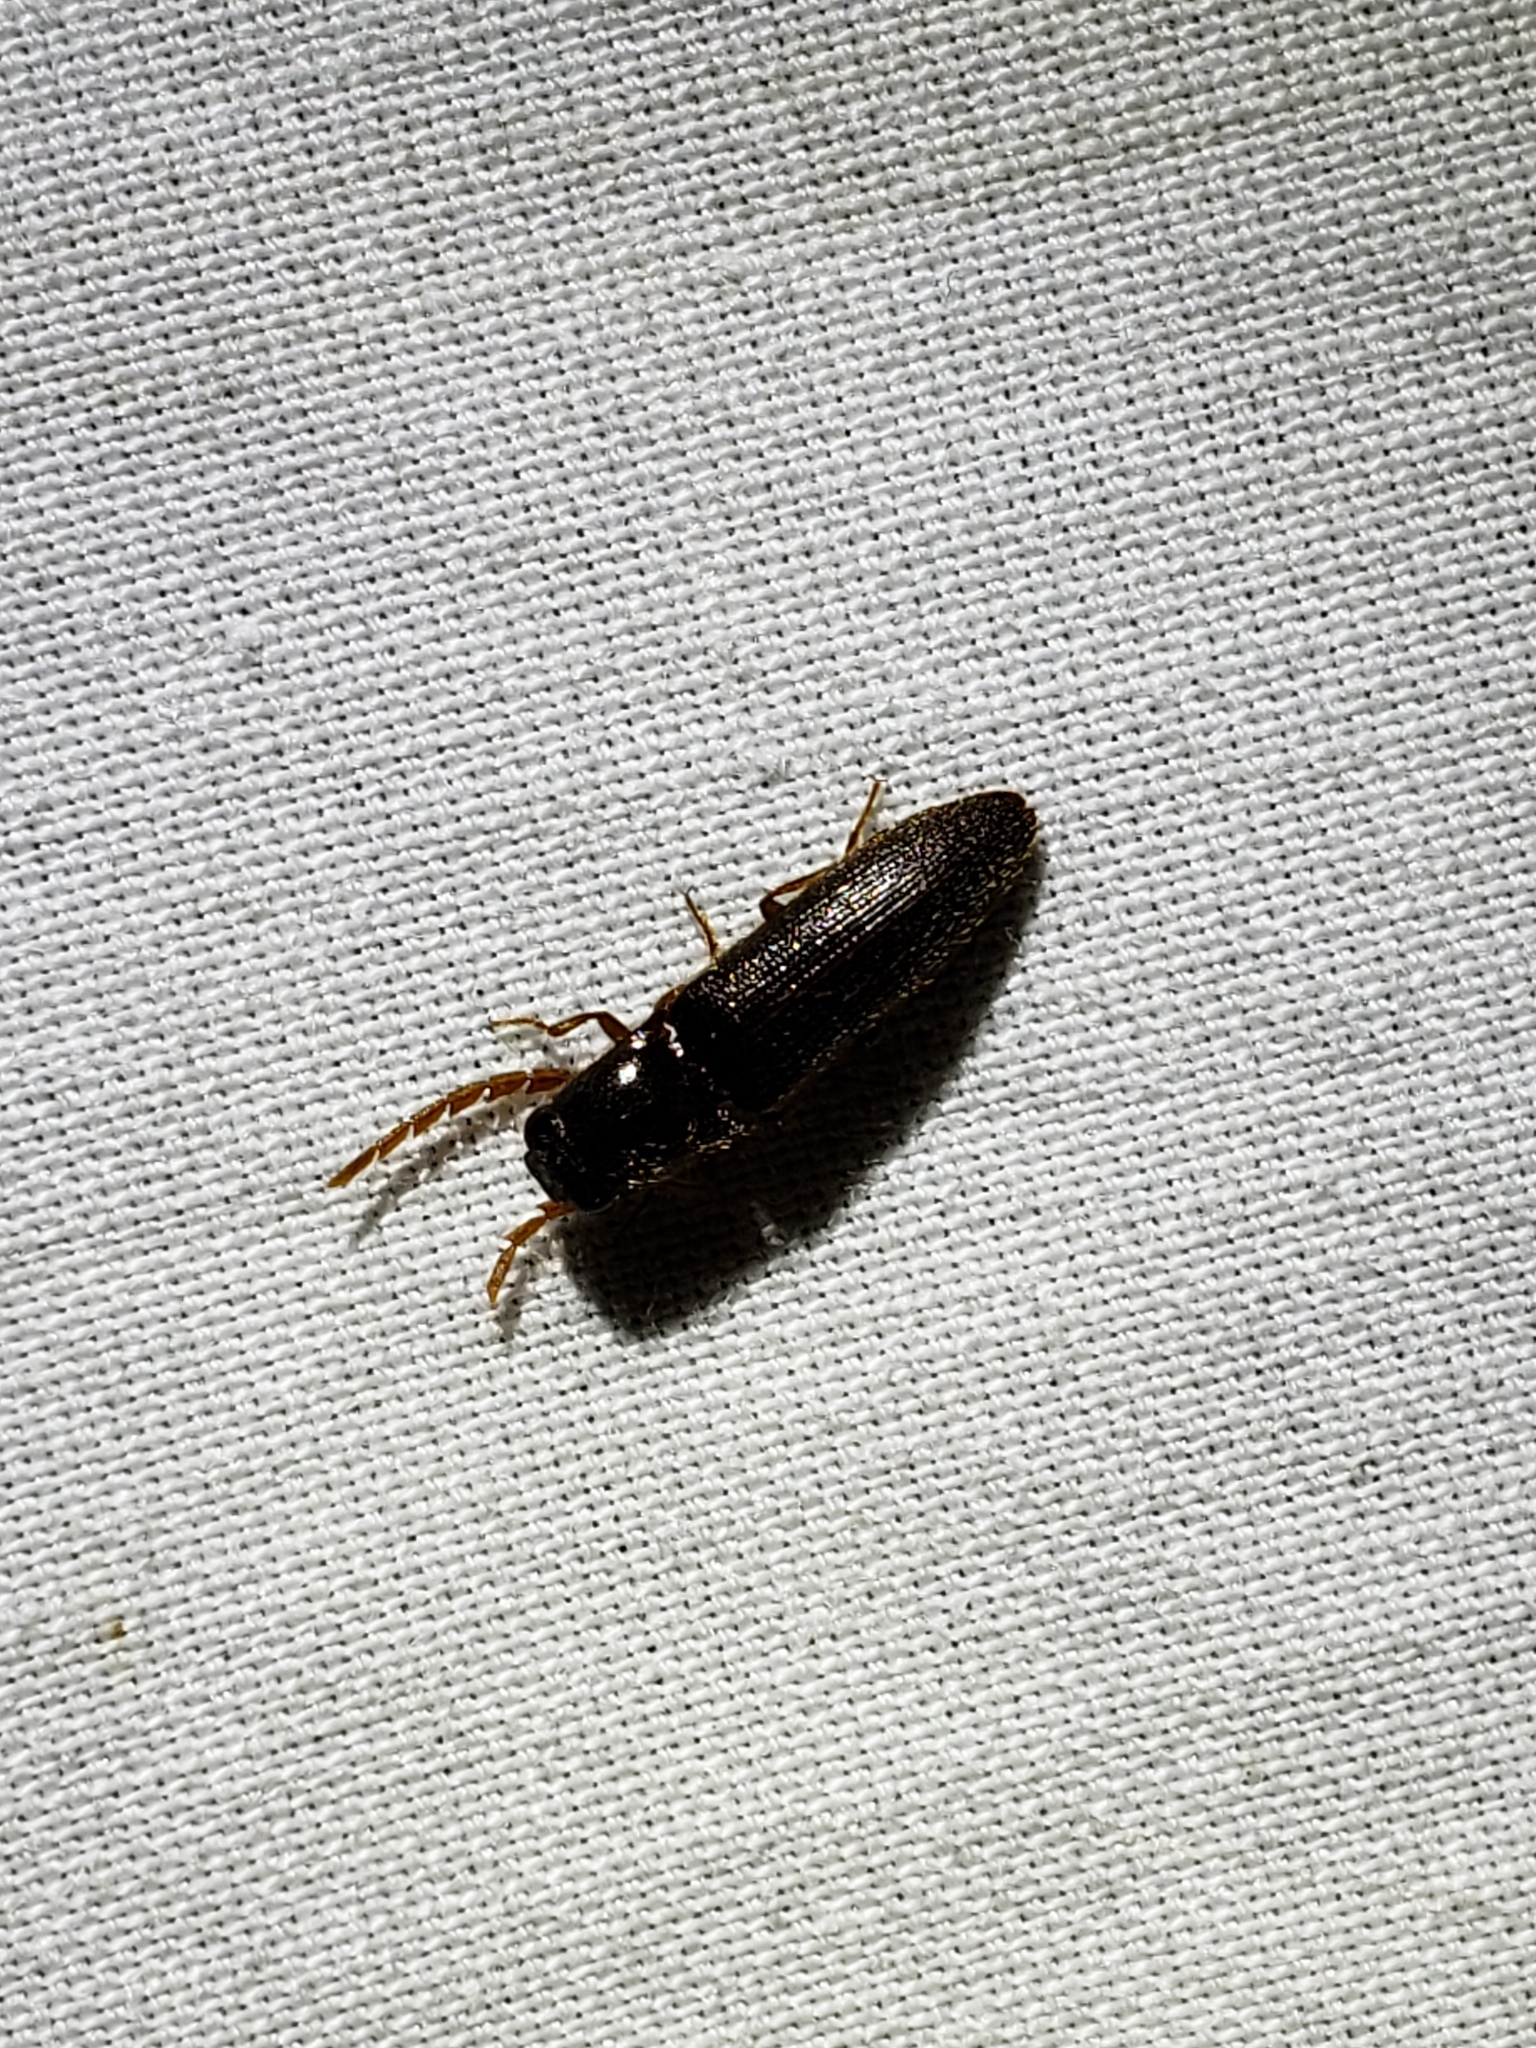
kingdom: Animalia
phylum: Arthropoda
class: Insecta
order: Coleoptera
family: Elateridae
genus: Dipropus
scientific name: Dipropus
